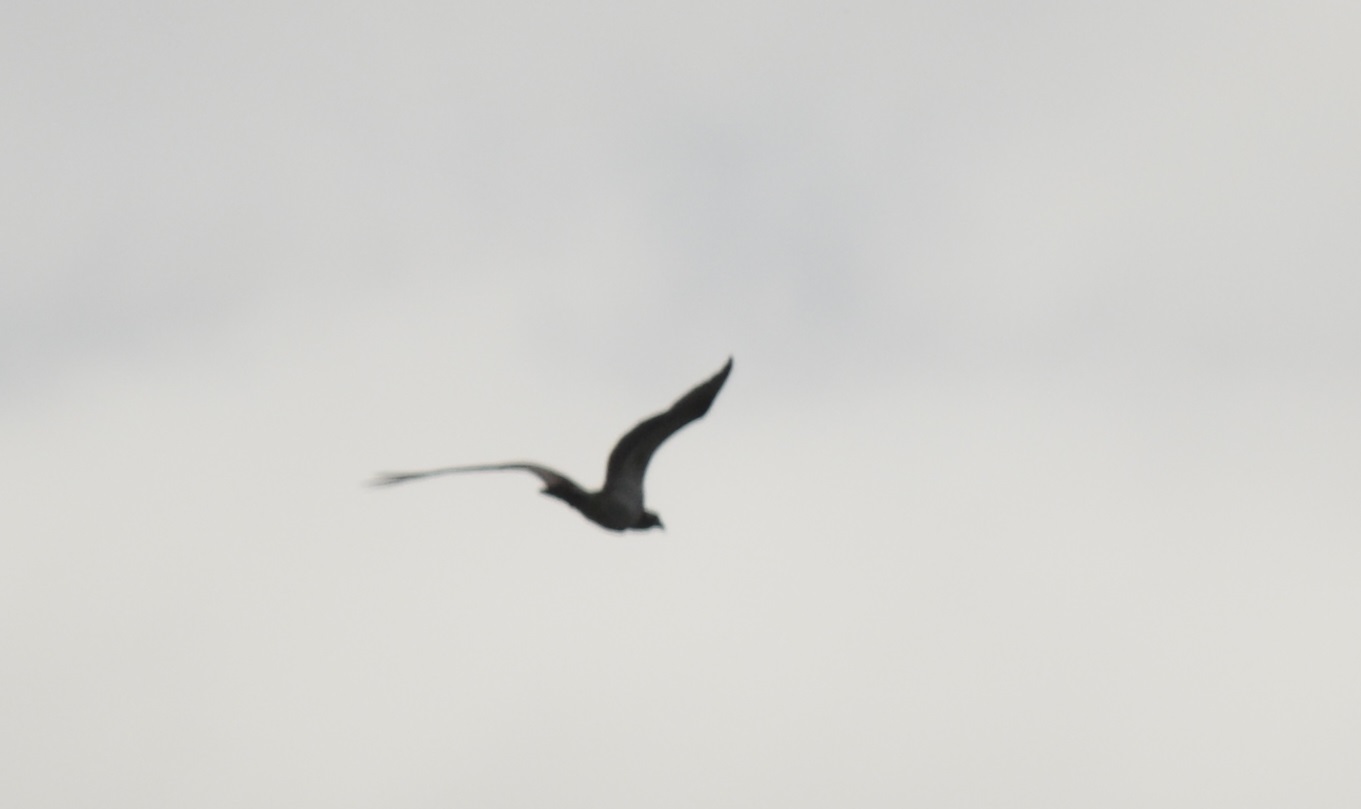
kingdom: Animalia
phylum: Chordata
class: Aves
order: Accipitriformes
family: Pandionidae
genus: Pandion
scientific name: Pandion haliaetus
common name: Osprey
